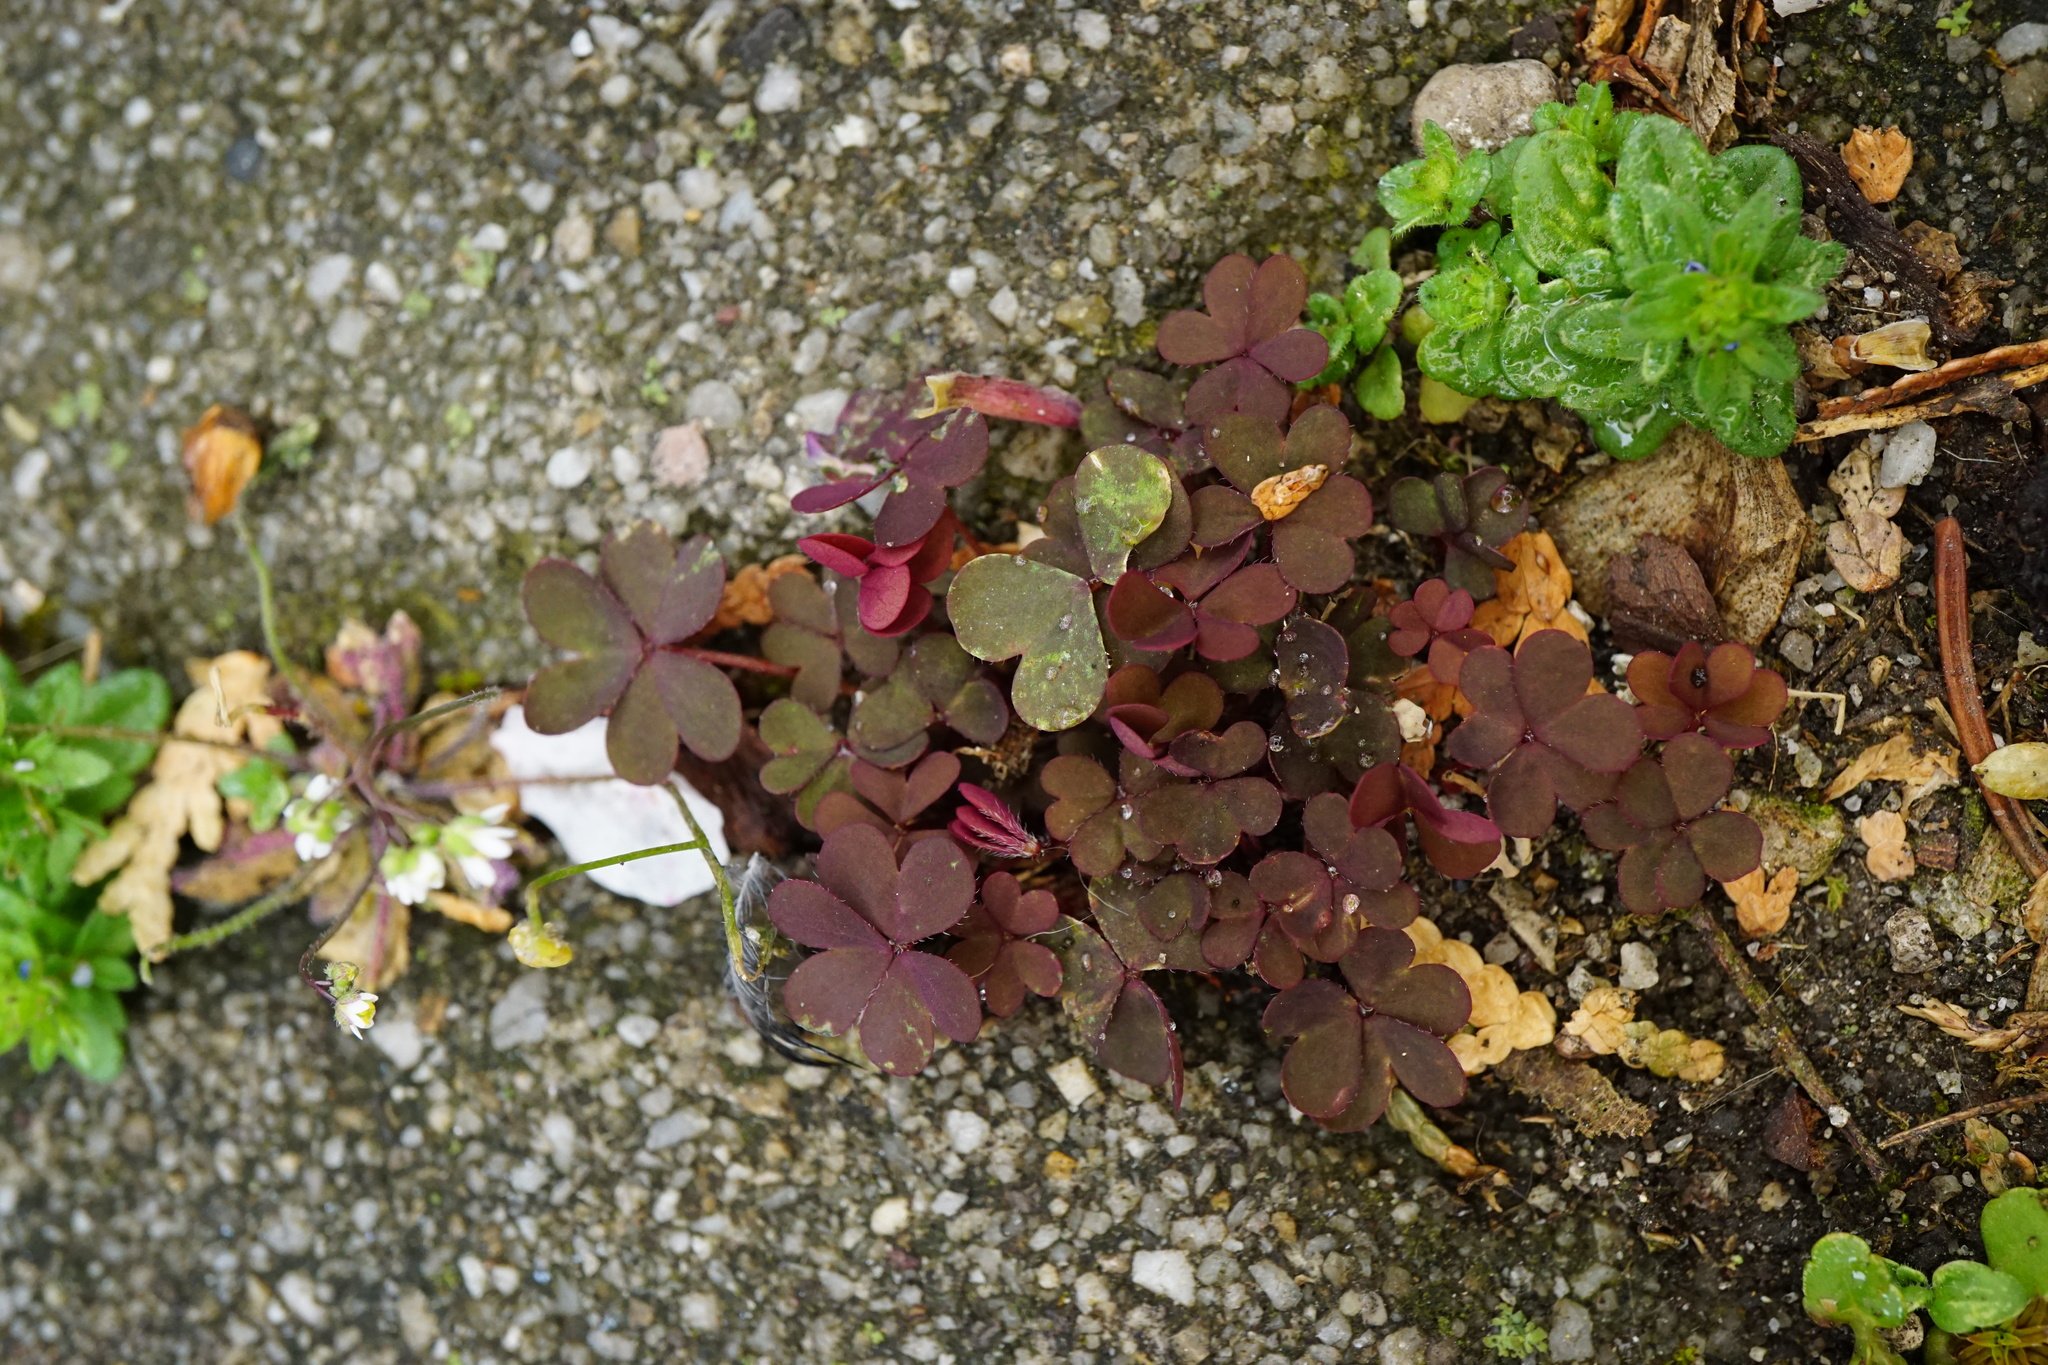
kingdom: Plantae
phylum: Tracheophyta
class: Magnoliopsida
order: Oxalidales
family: Oxalidaceae
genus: Oxalis
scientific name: Oxalis corniculata
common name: Procumbent yellow-sorrel
